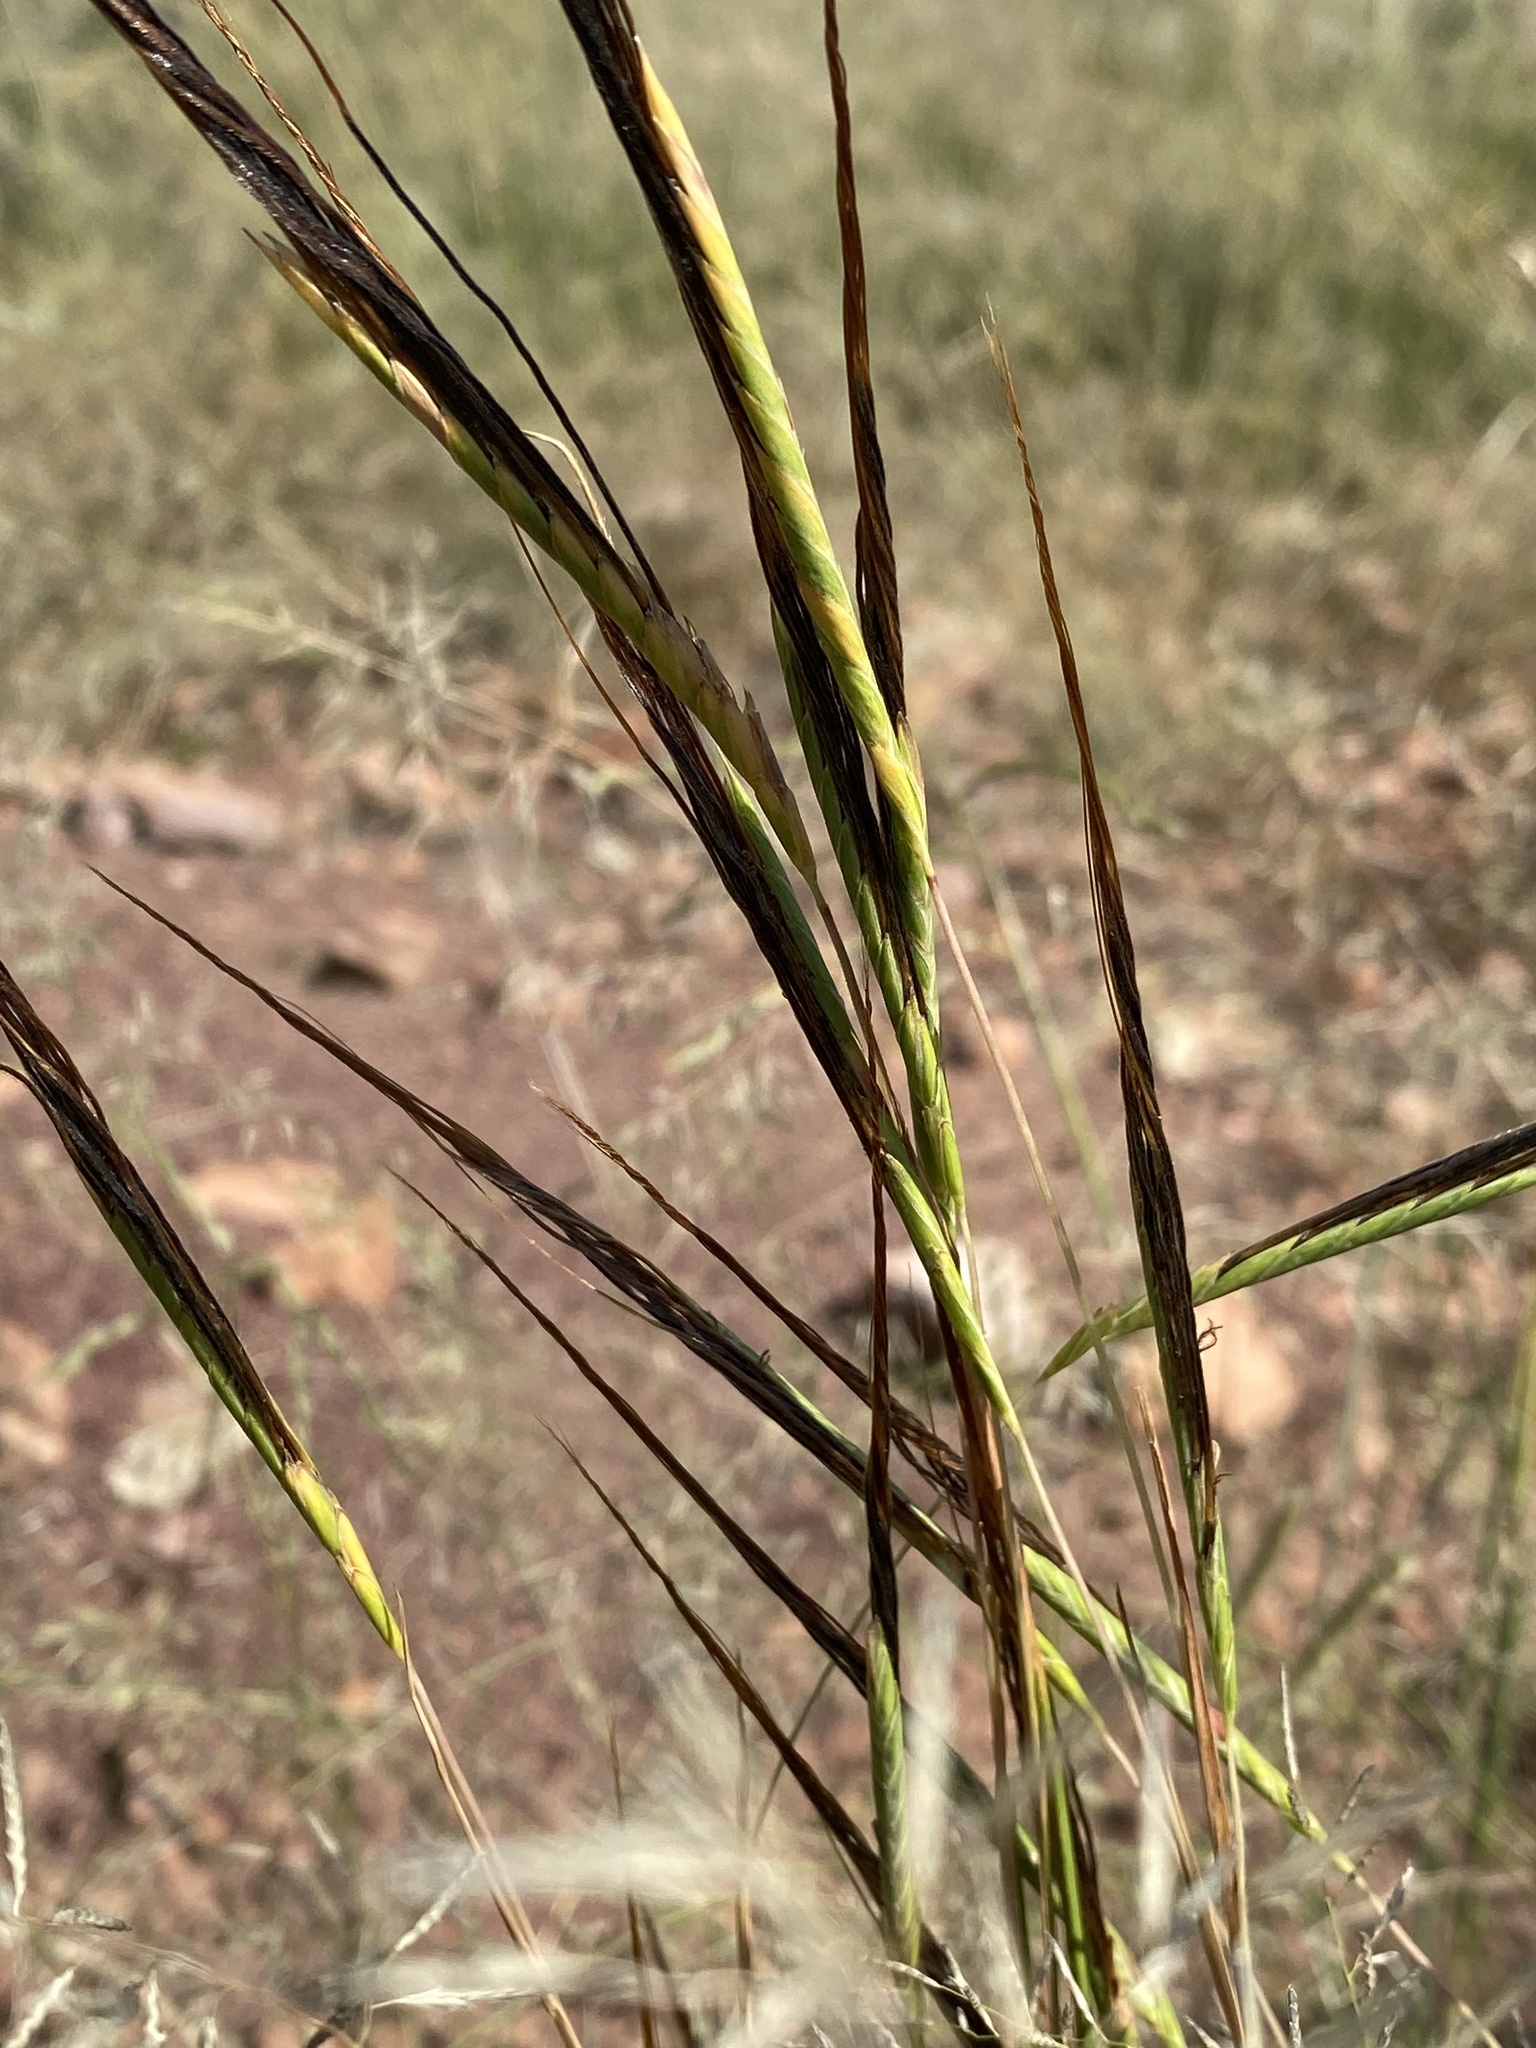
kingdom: Plantae
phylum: Tracheophyta
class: Liliopsida
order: Poales
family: Poaceae
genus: Heteropogon
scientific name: Heteropogon contortus
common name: Tanglehead
